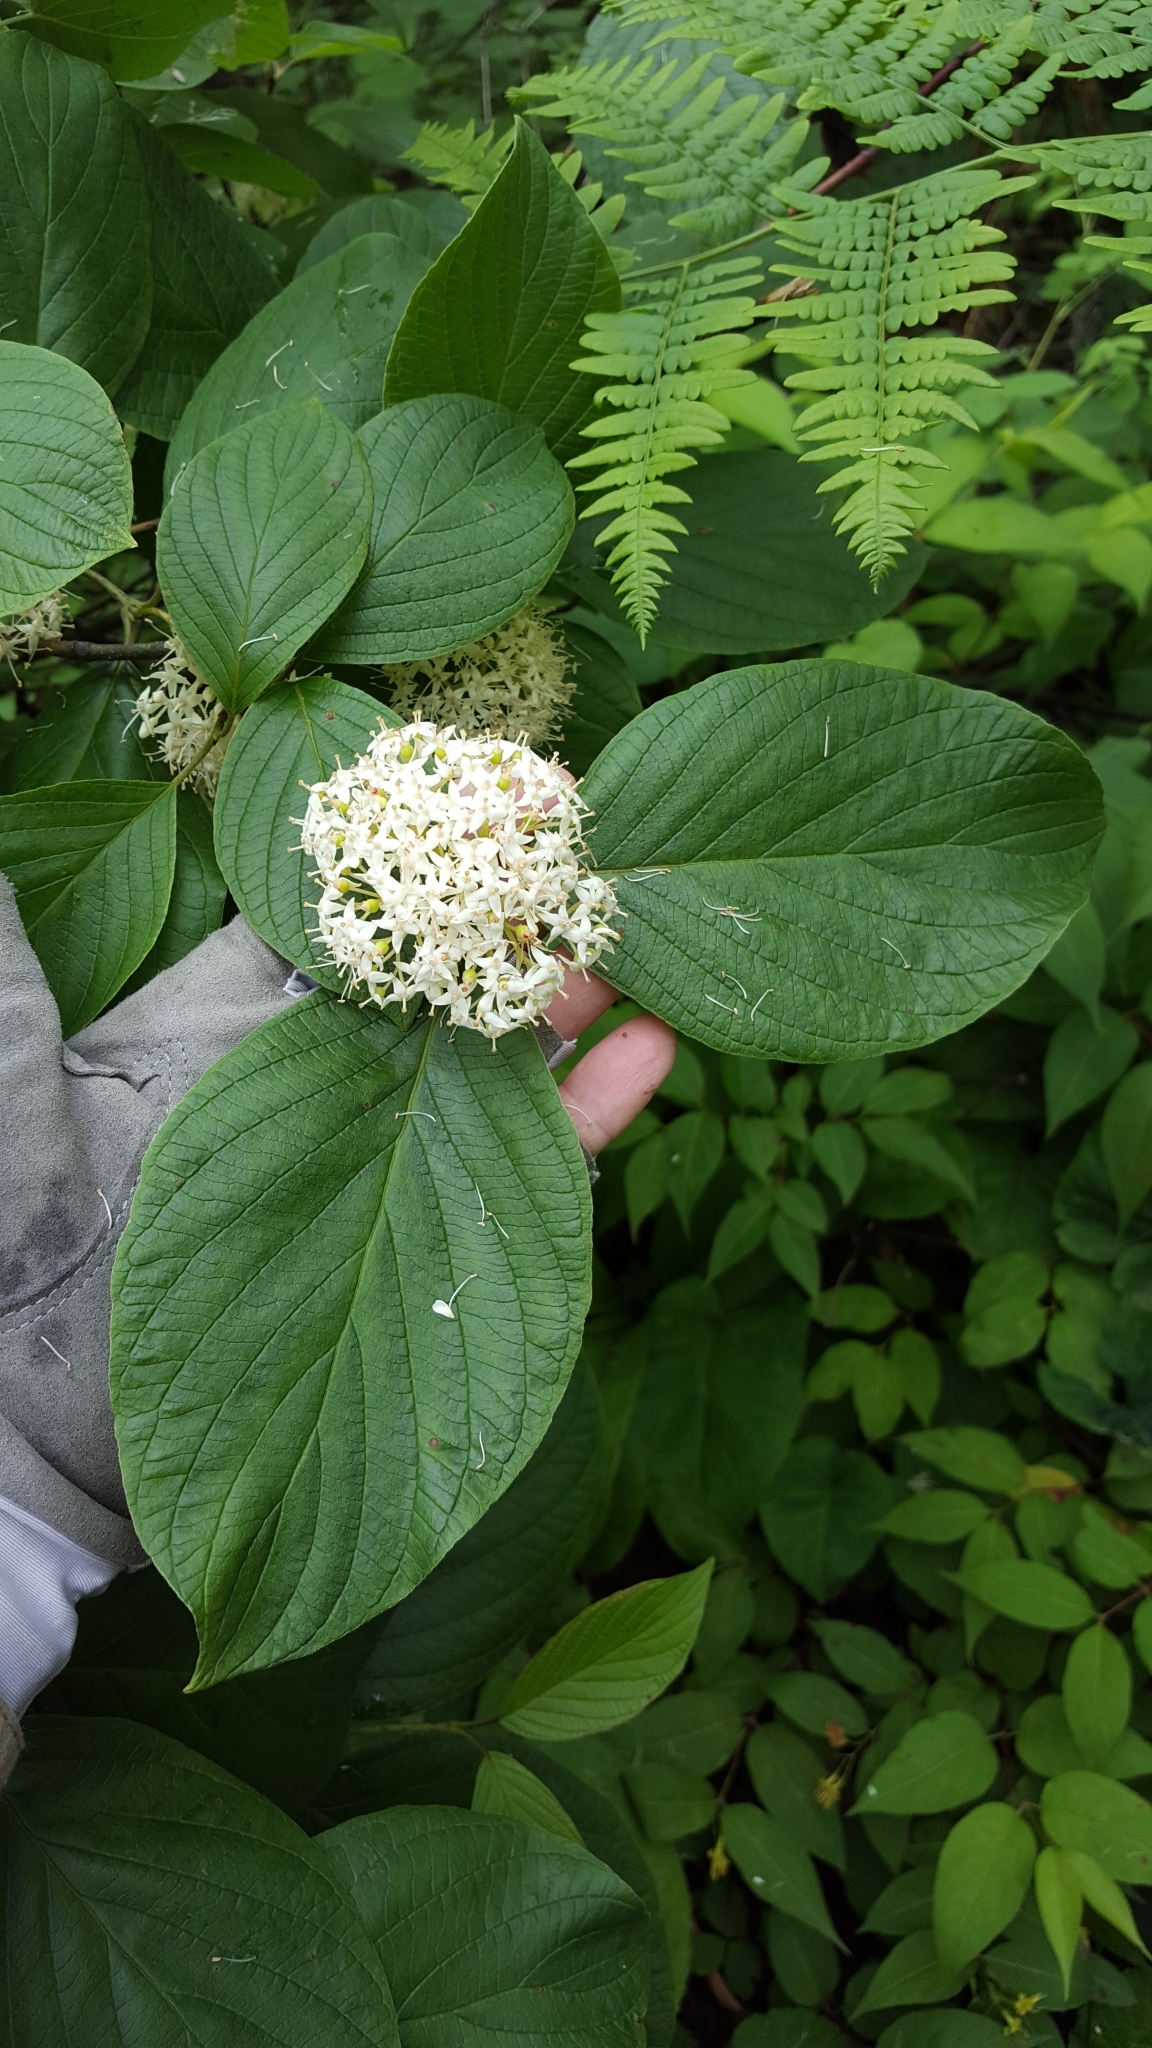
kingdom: Plantae
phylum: Tracheophyta
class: Magnoliopsida
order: Cornales
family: Cornaceae
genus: Cornus
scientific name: Cornus rugosa
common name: Round-leaf dogwood
